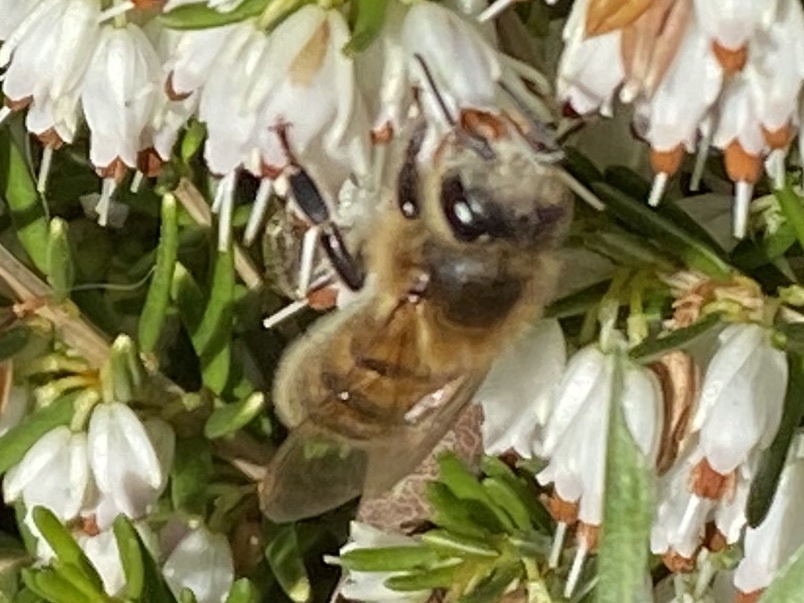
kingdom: Animalia
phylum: Arthropoda
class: Insecta
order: Hymenoptera
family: Apidae
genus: Apis
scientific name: Apis mellifera
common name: Honey bee
